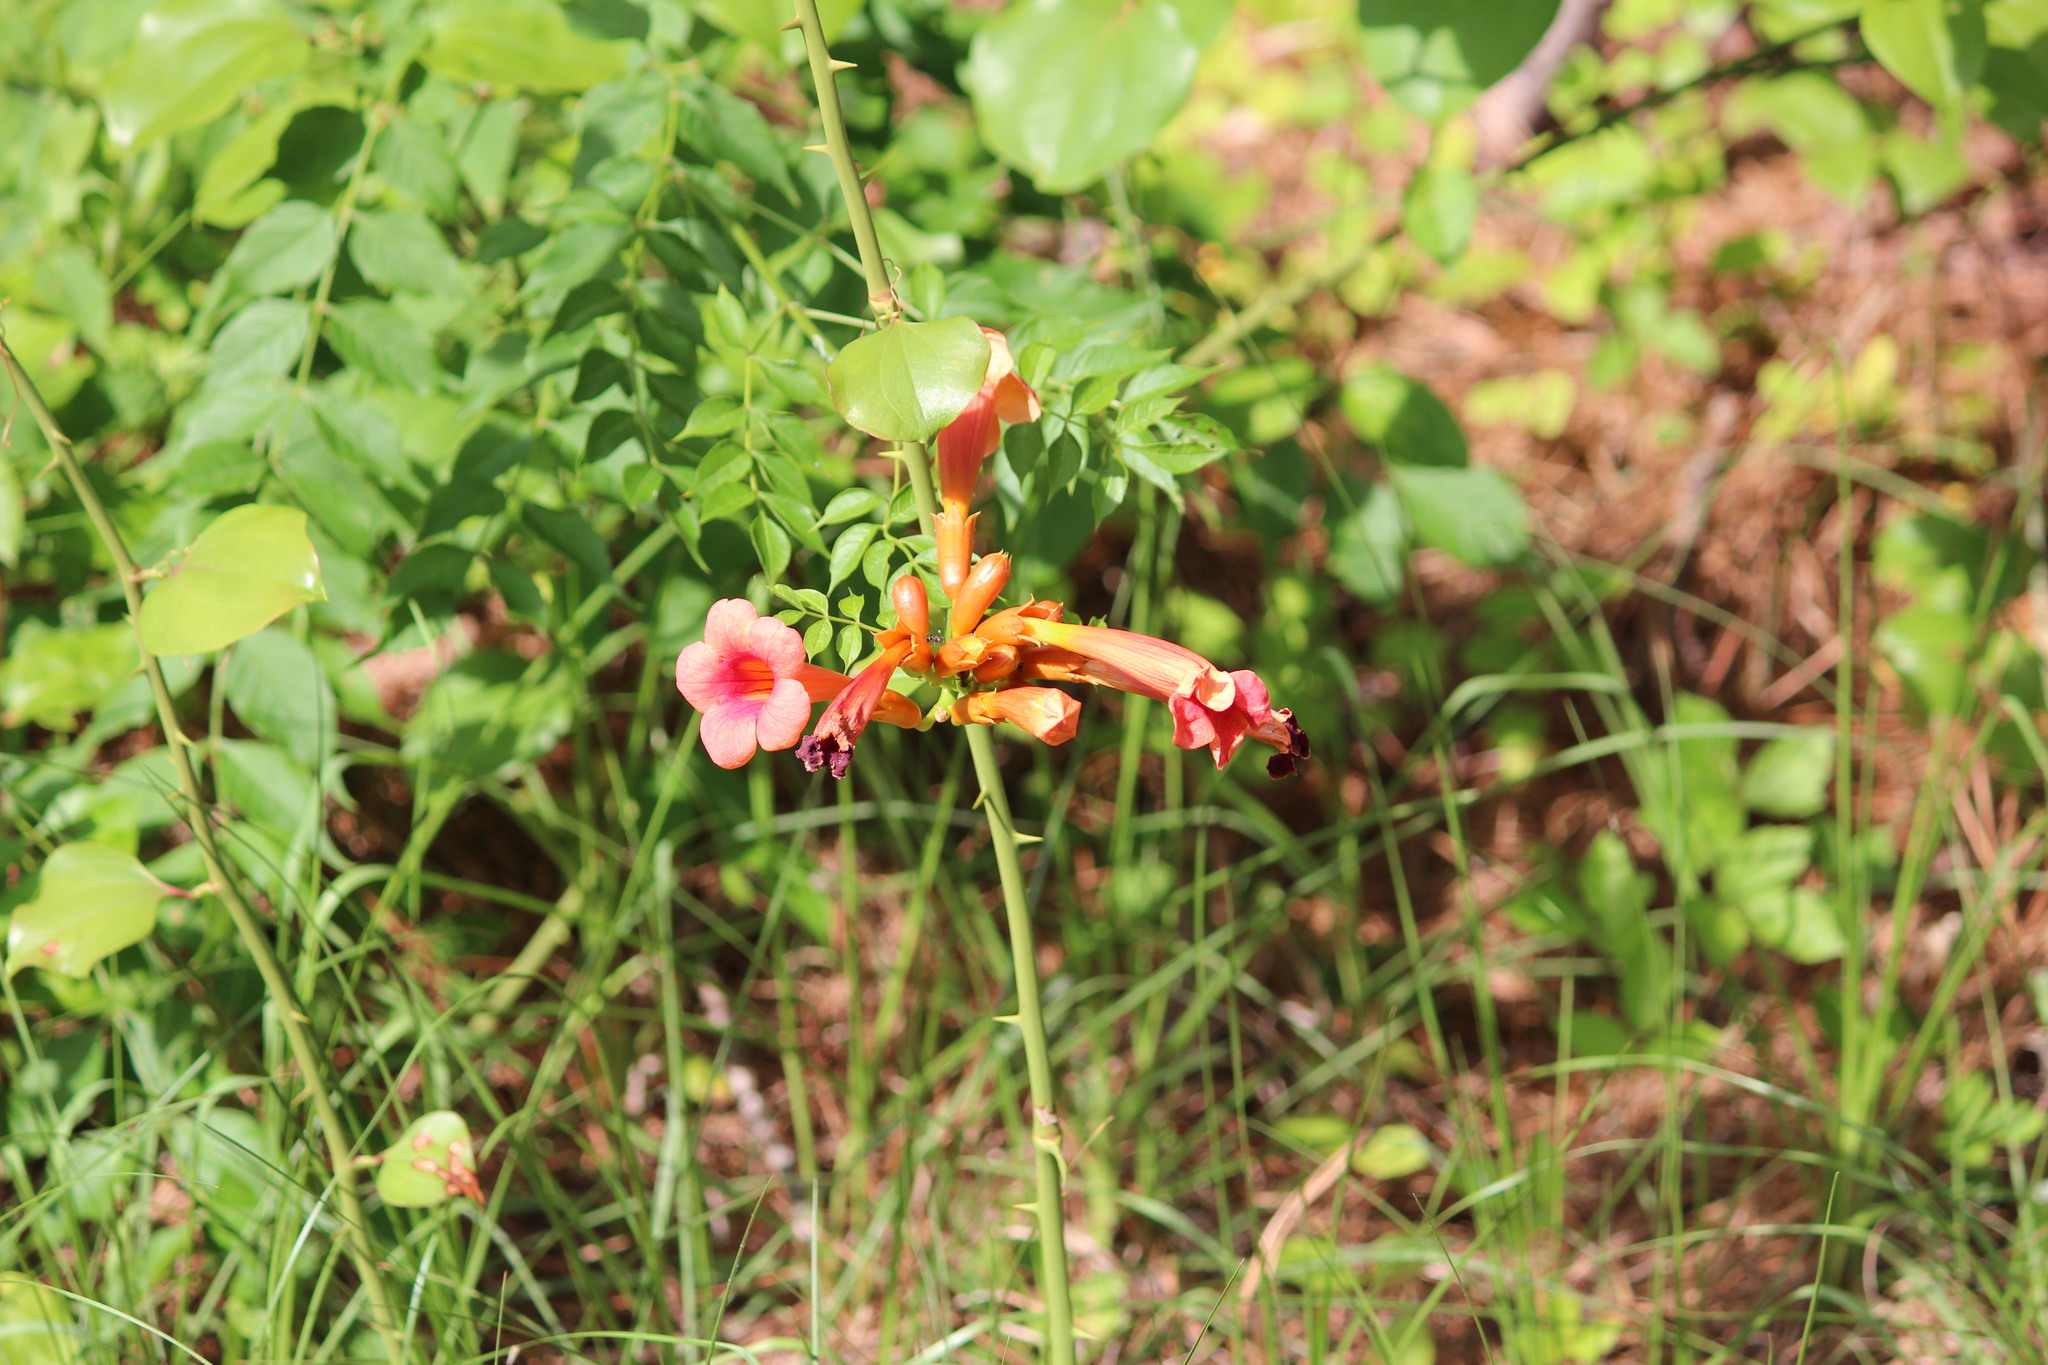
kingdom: Plantae
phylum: Tracheophyta
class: Magnoliopsida
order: Lamiales
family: Bignoniaceae
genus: Campsis
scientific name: Campsis radicans
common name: Trumpet-creeper
